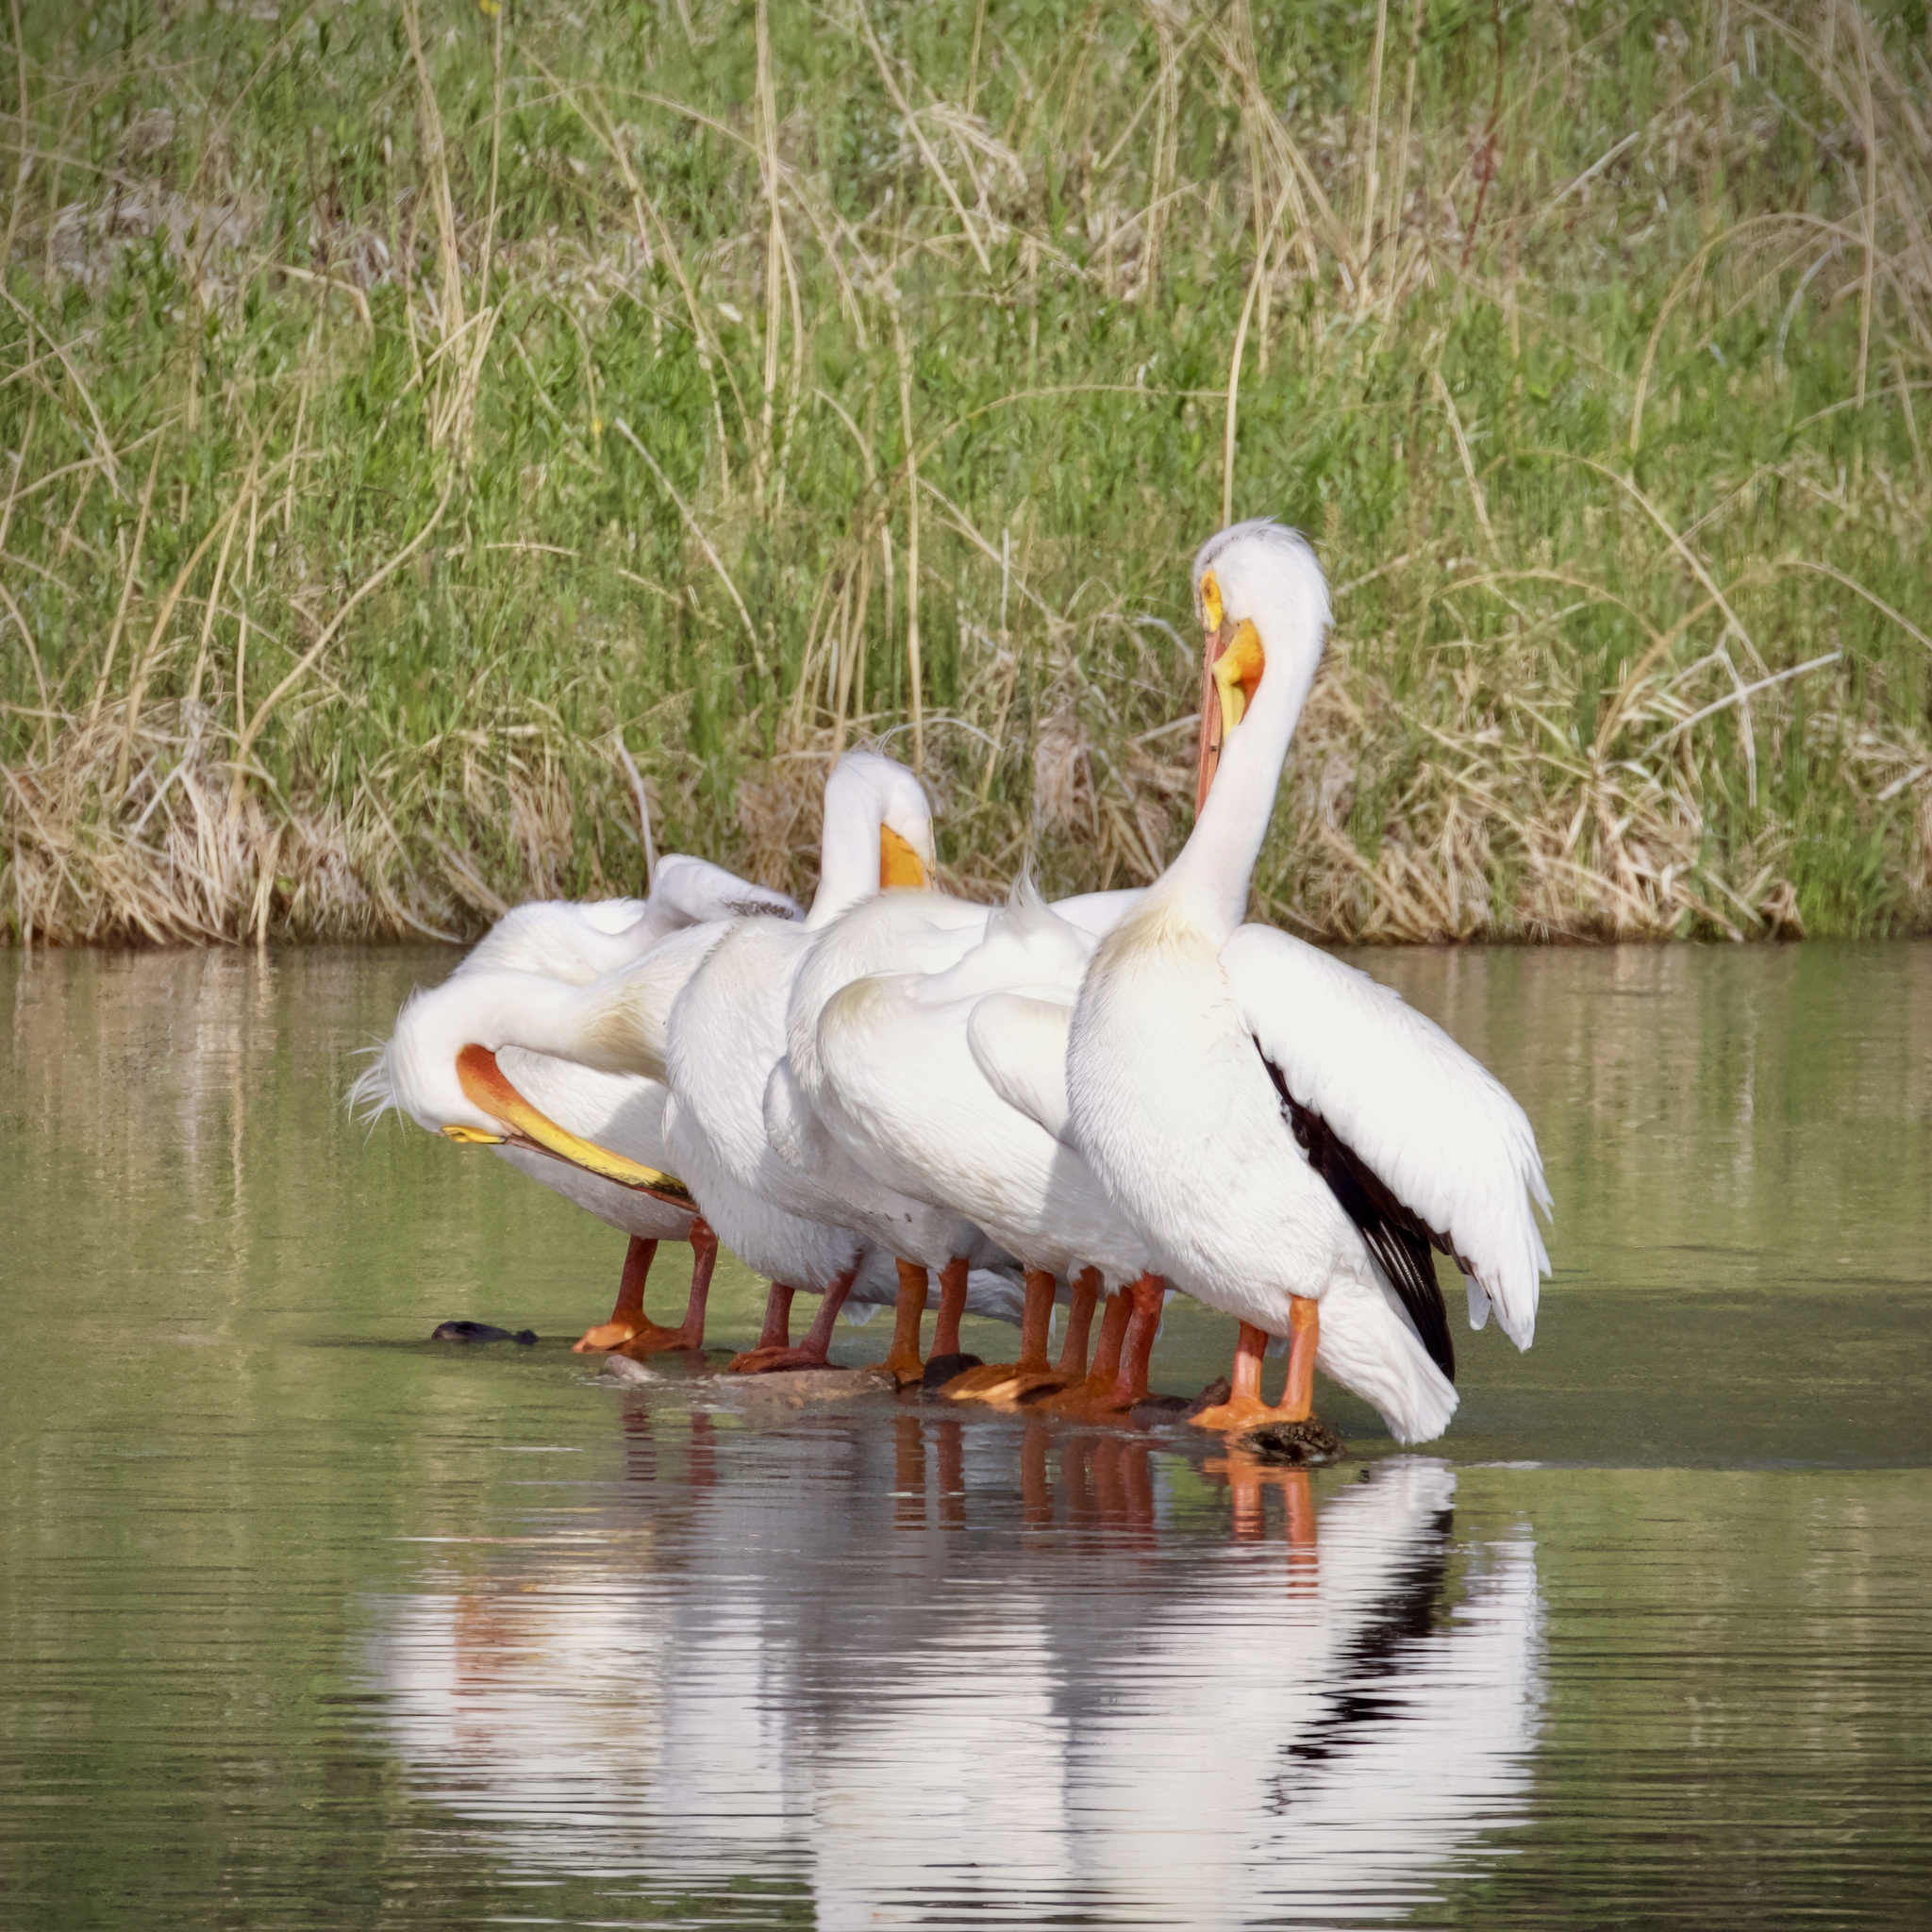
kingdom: Animalia
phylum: Chordata
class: Aves
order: Pelecaniformes
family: Pelecanidae
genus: Pelecanus
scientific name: Pelecanus erythrorhynchos
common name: American white pelican
